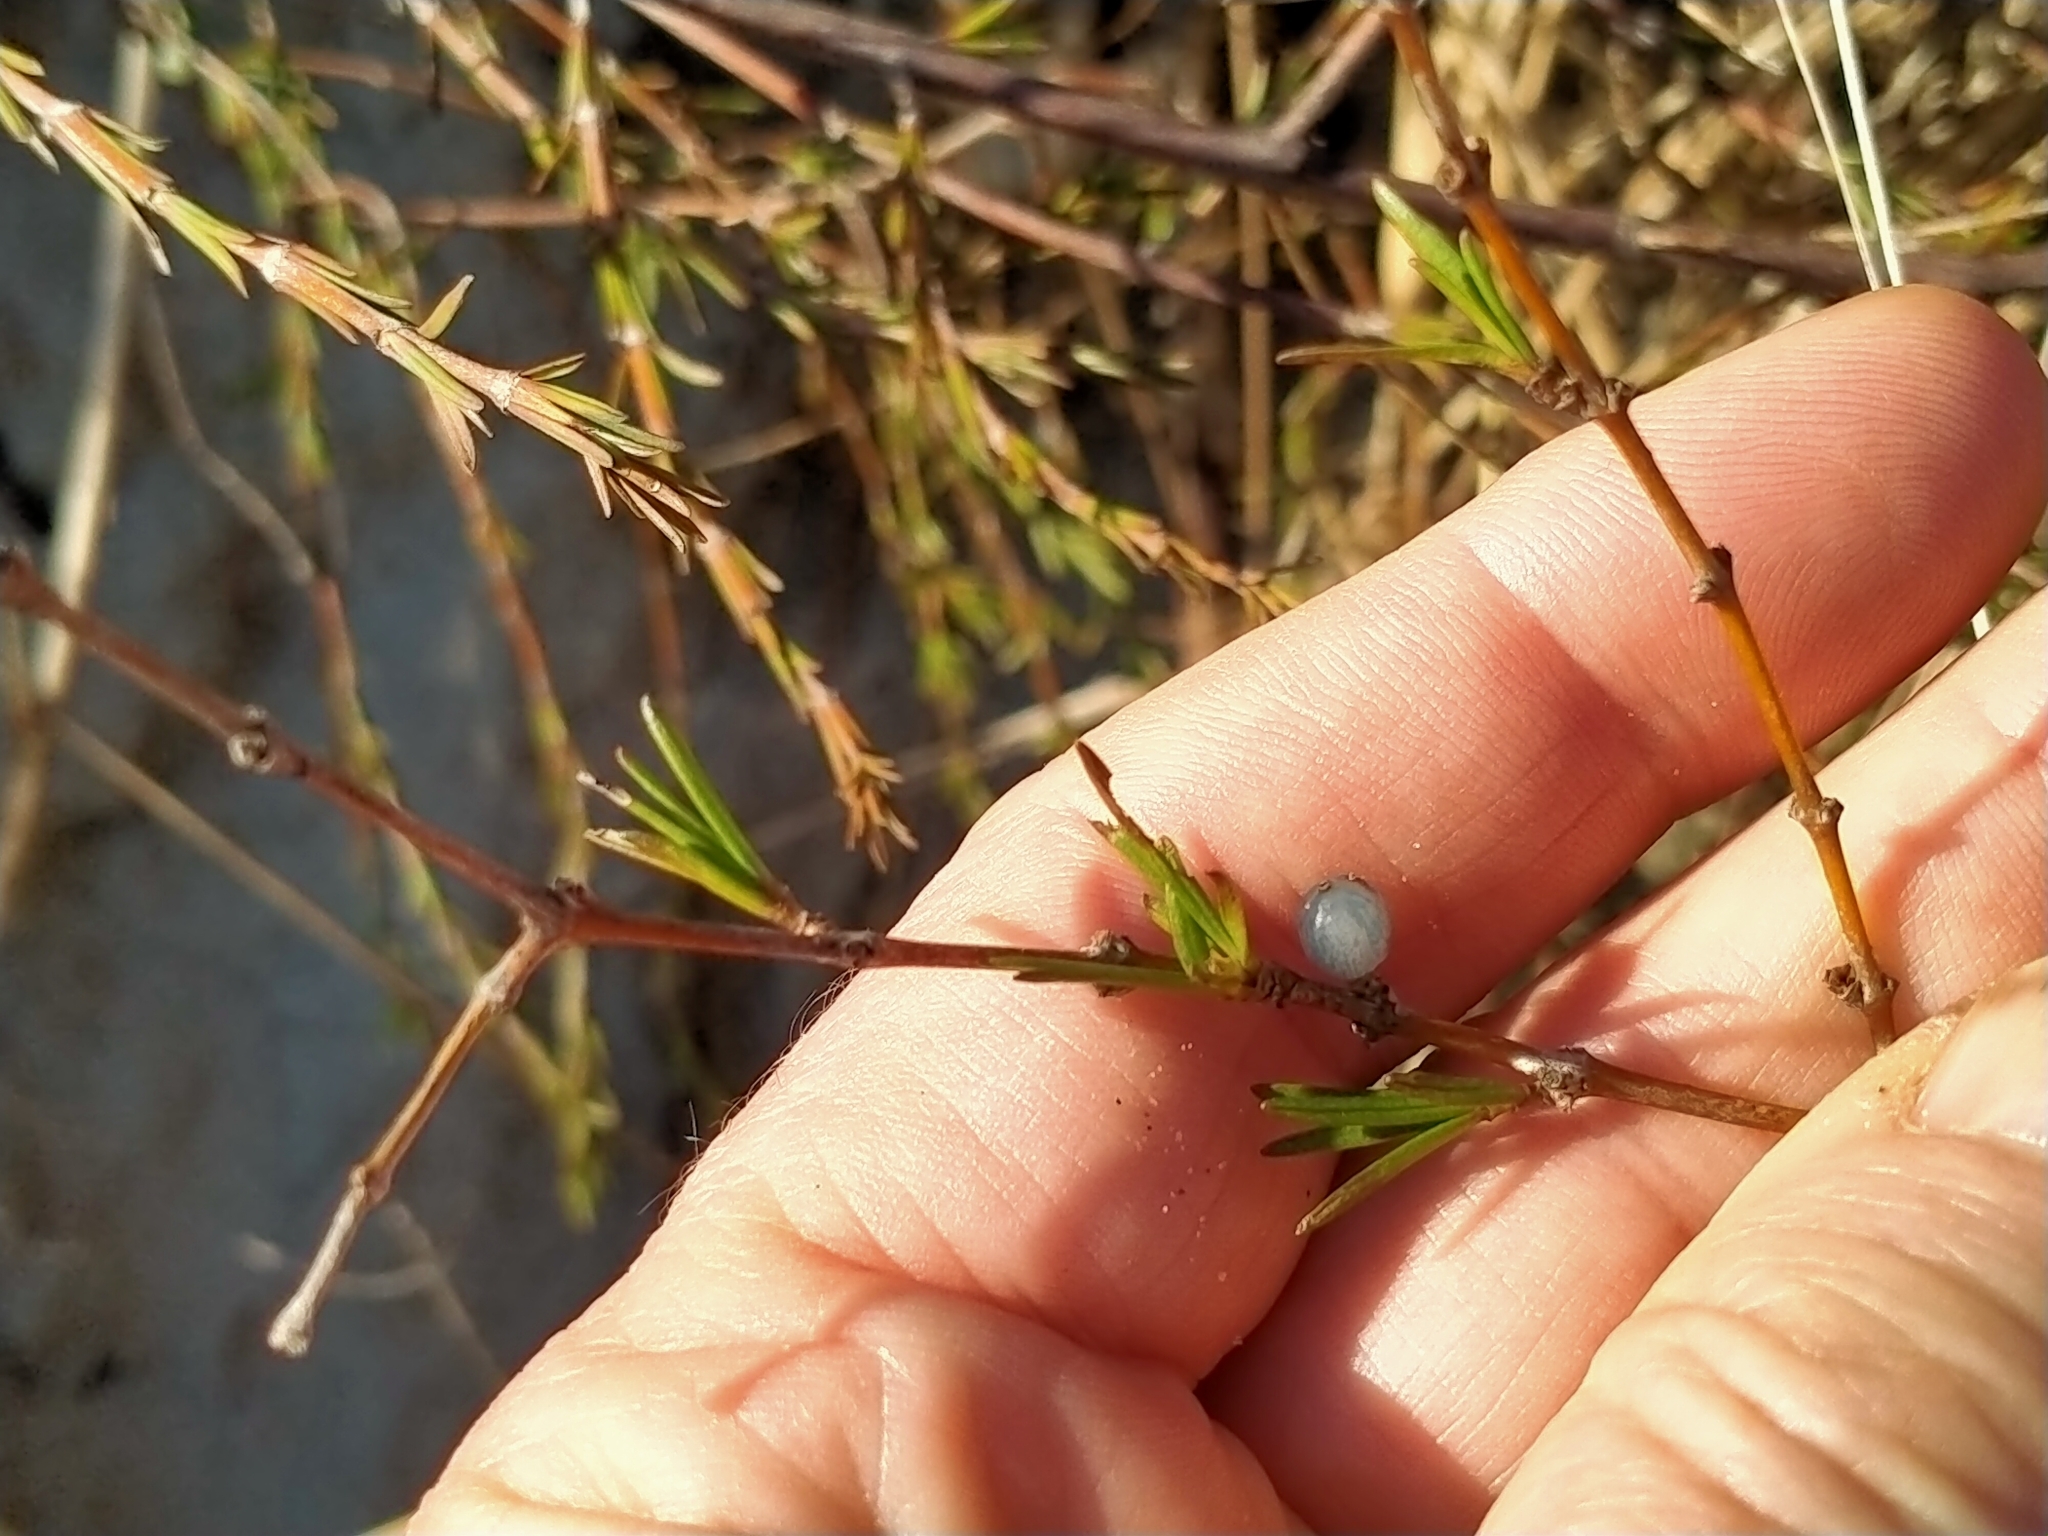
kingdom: Plantae
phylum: Tracheophyta
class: Magnoliopsida
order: Gentianales
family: Rubiaceae
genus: Coprosma
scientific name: Coprosma acerosa
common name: Sand coprosma
